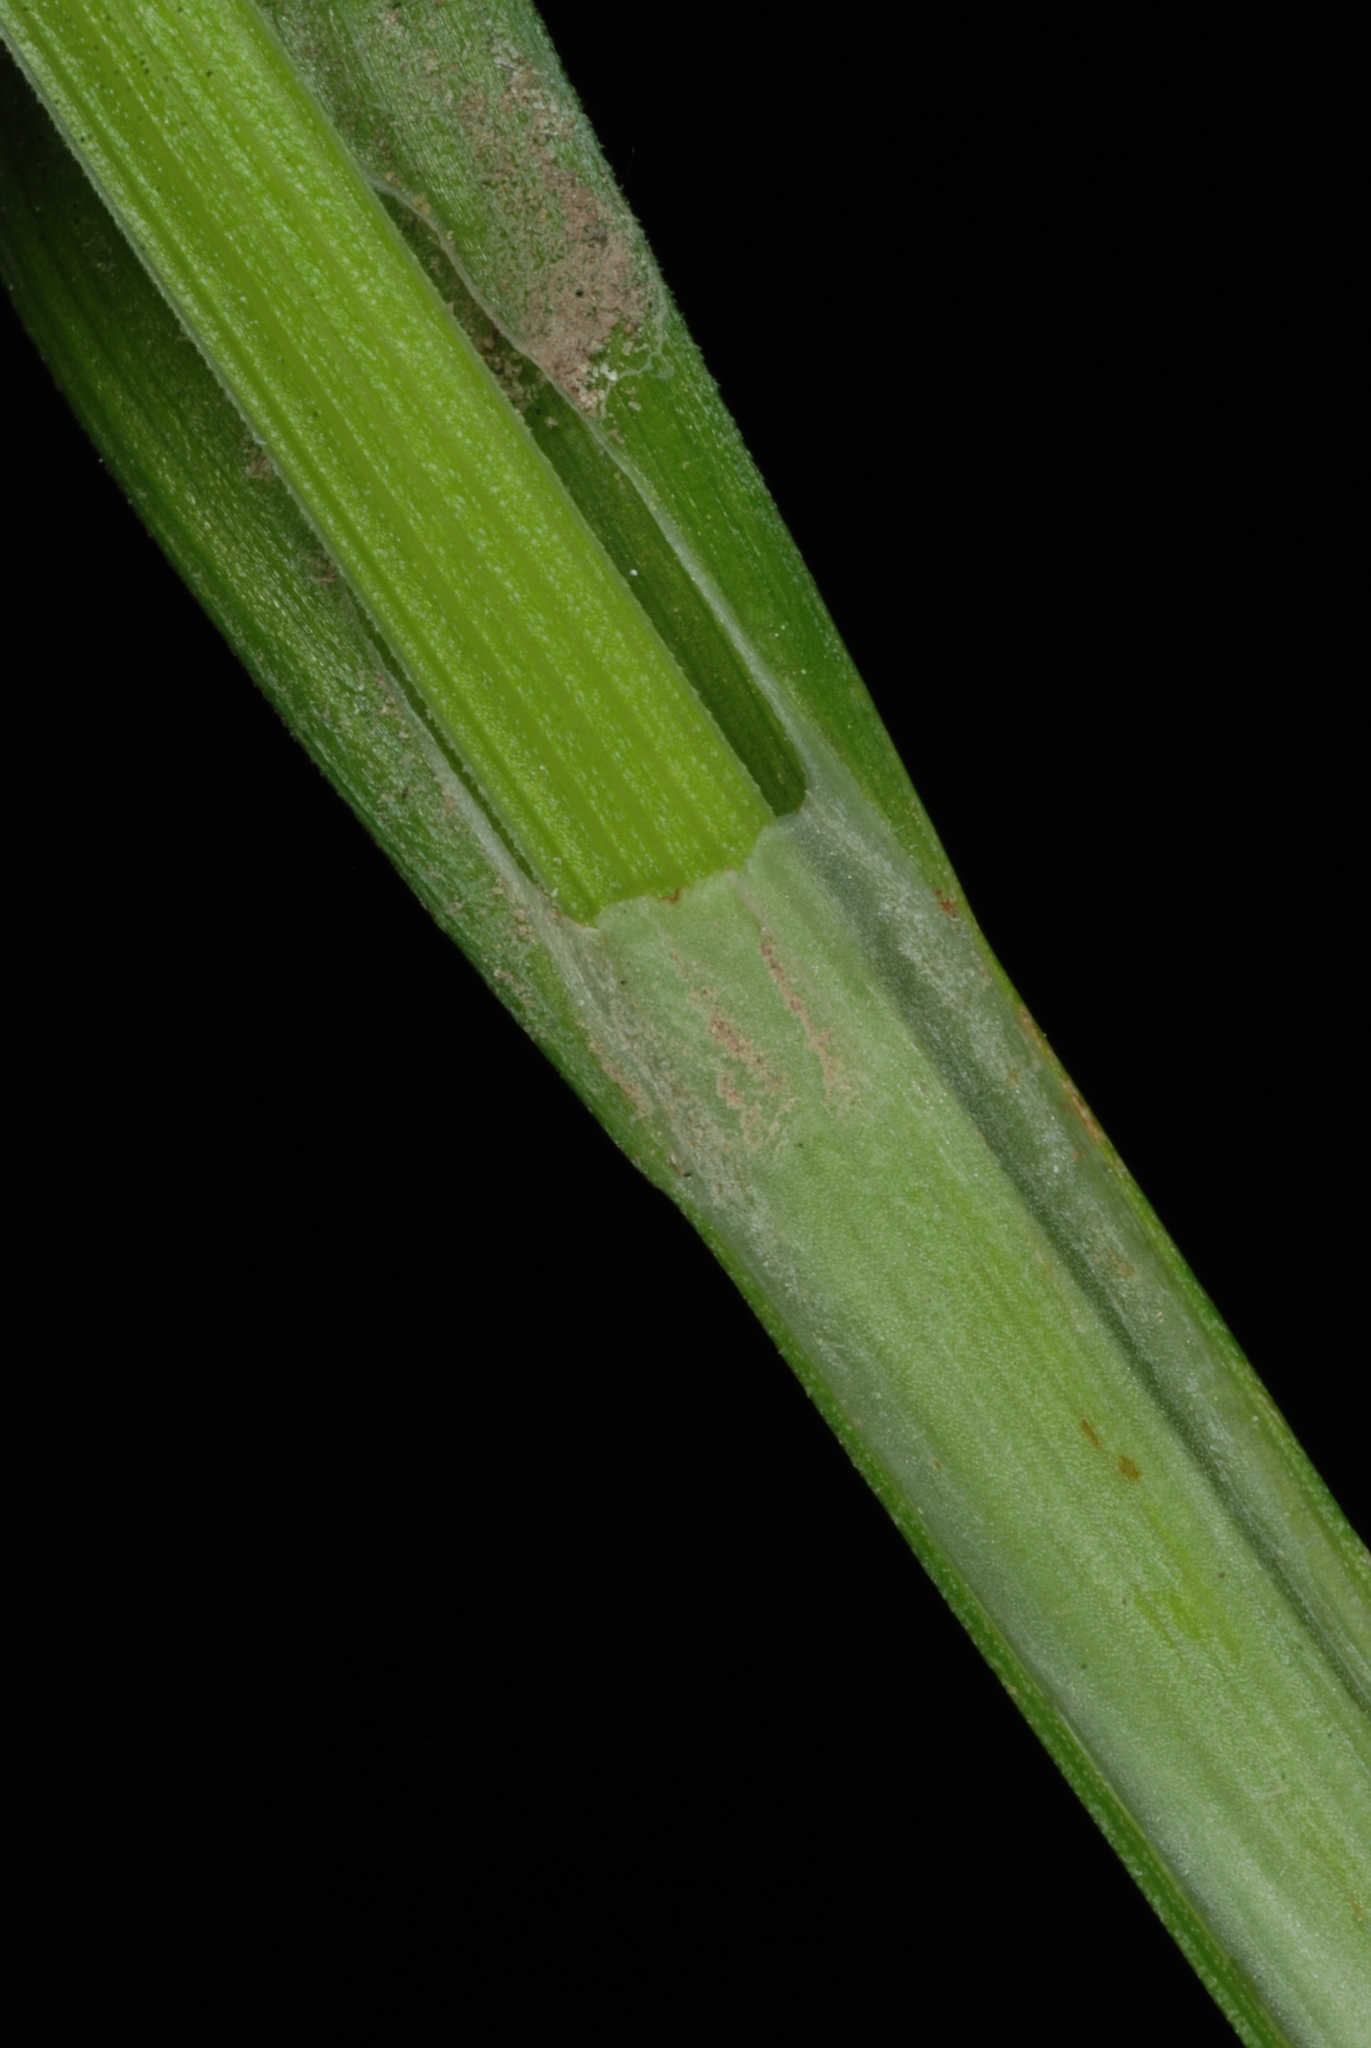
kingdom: Plantae
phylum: Tracheophyta
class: Liliopsida
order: Poales
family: Cyperaceae
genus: Carex
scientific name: Carex blanda
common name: Bland sedge
